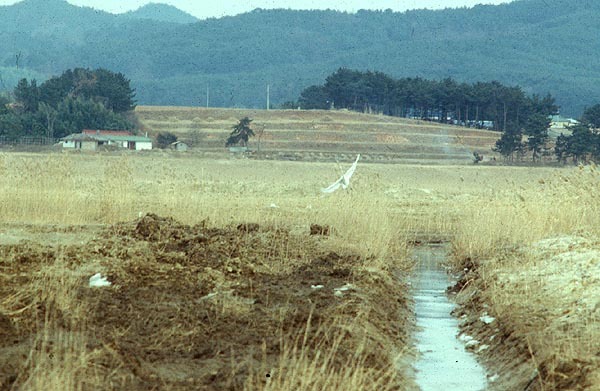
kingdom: Animalia
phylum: Chordata
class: Aves
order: Pelecaniformes
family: Ardeidae
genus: Ardea
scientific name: Ardea alba
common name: Great egret
